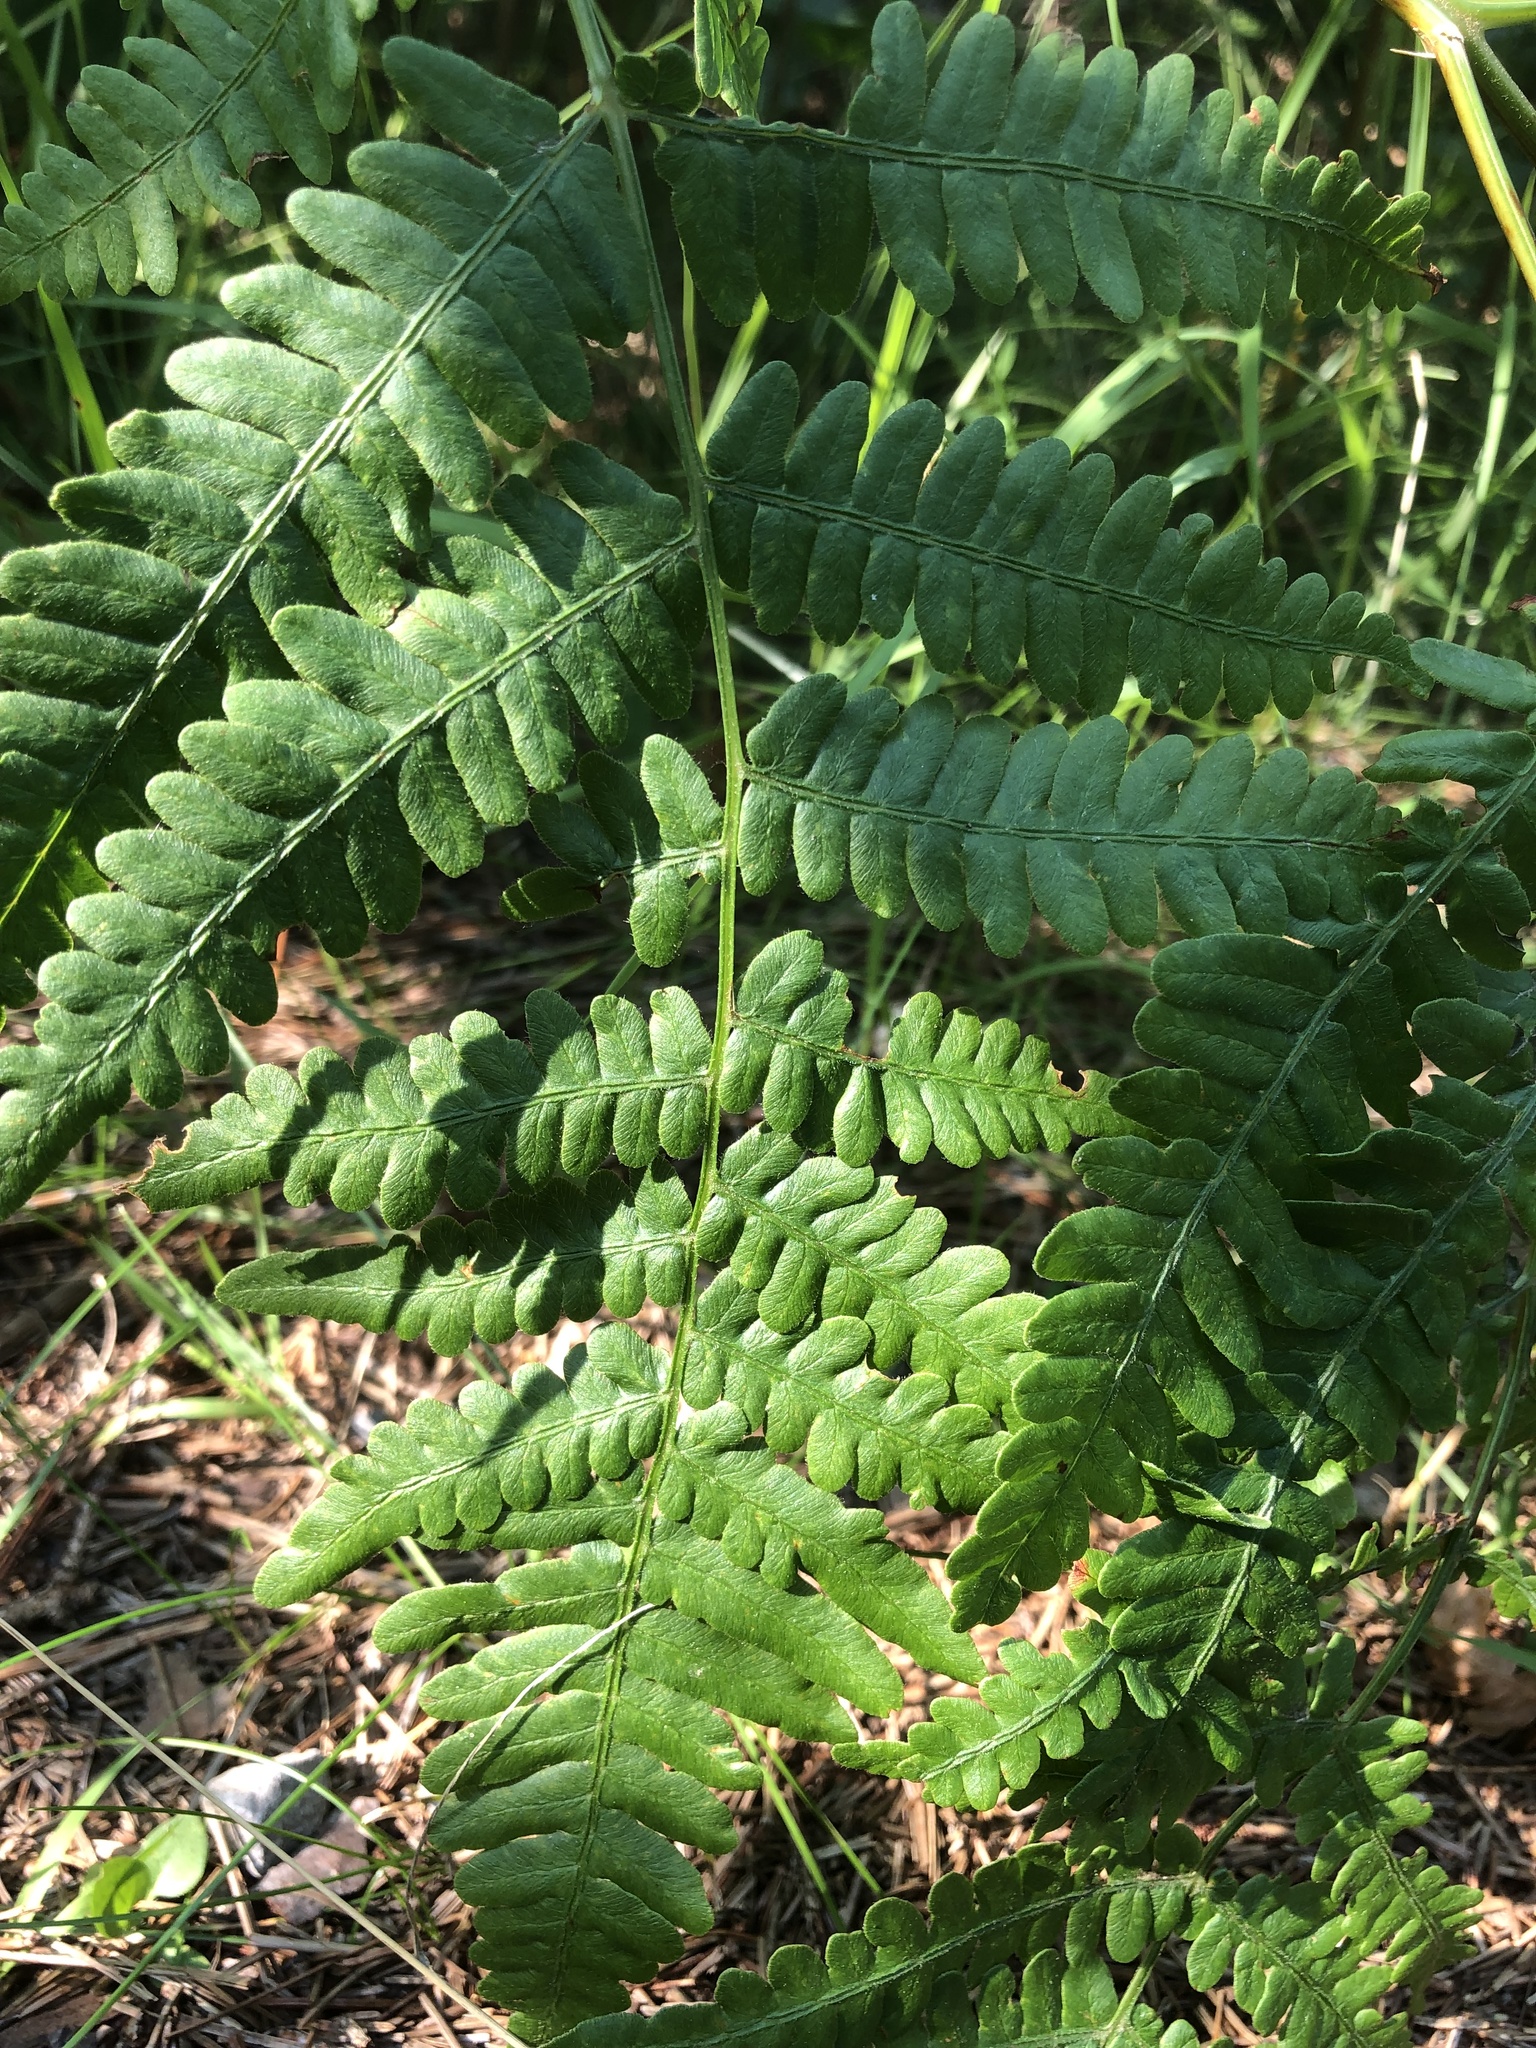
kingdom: Plantae
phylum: Tracheophyta
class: Polypodiopsida
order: Polypodiales
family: Dennstaedtiaceae
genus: Pteridium
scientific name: Pteridium aquilinum
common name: Bracken
